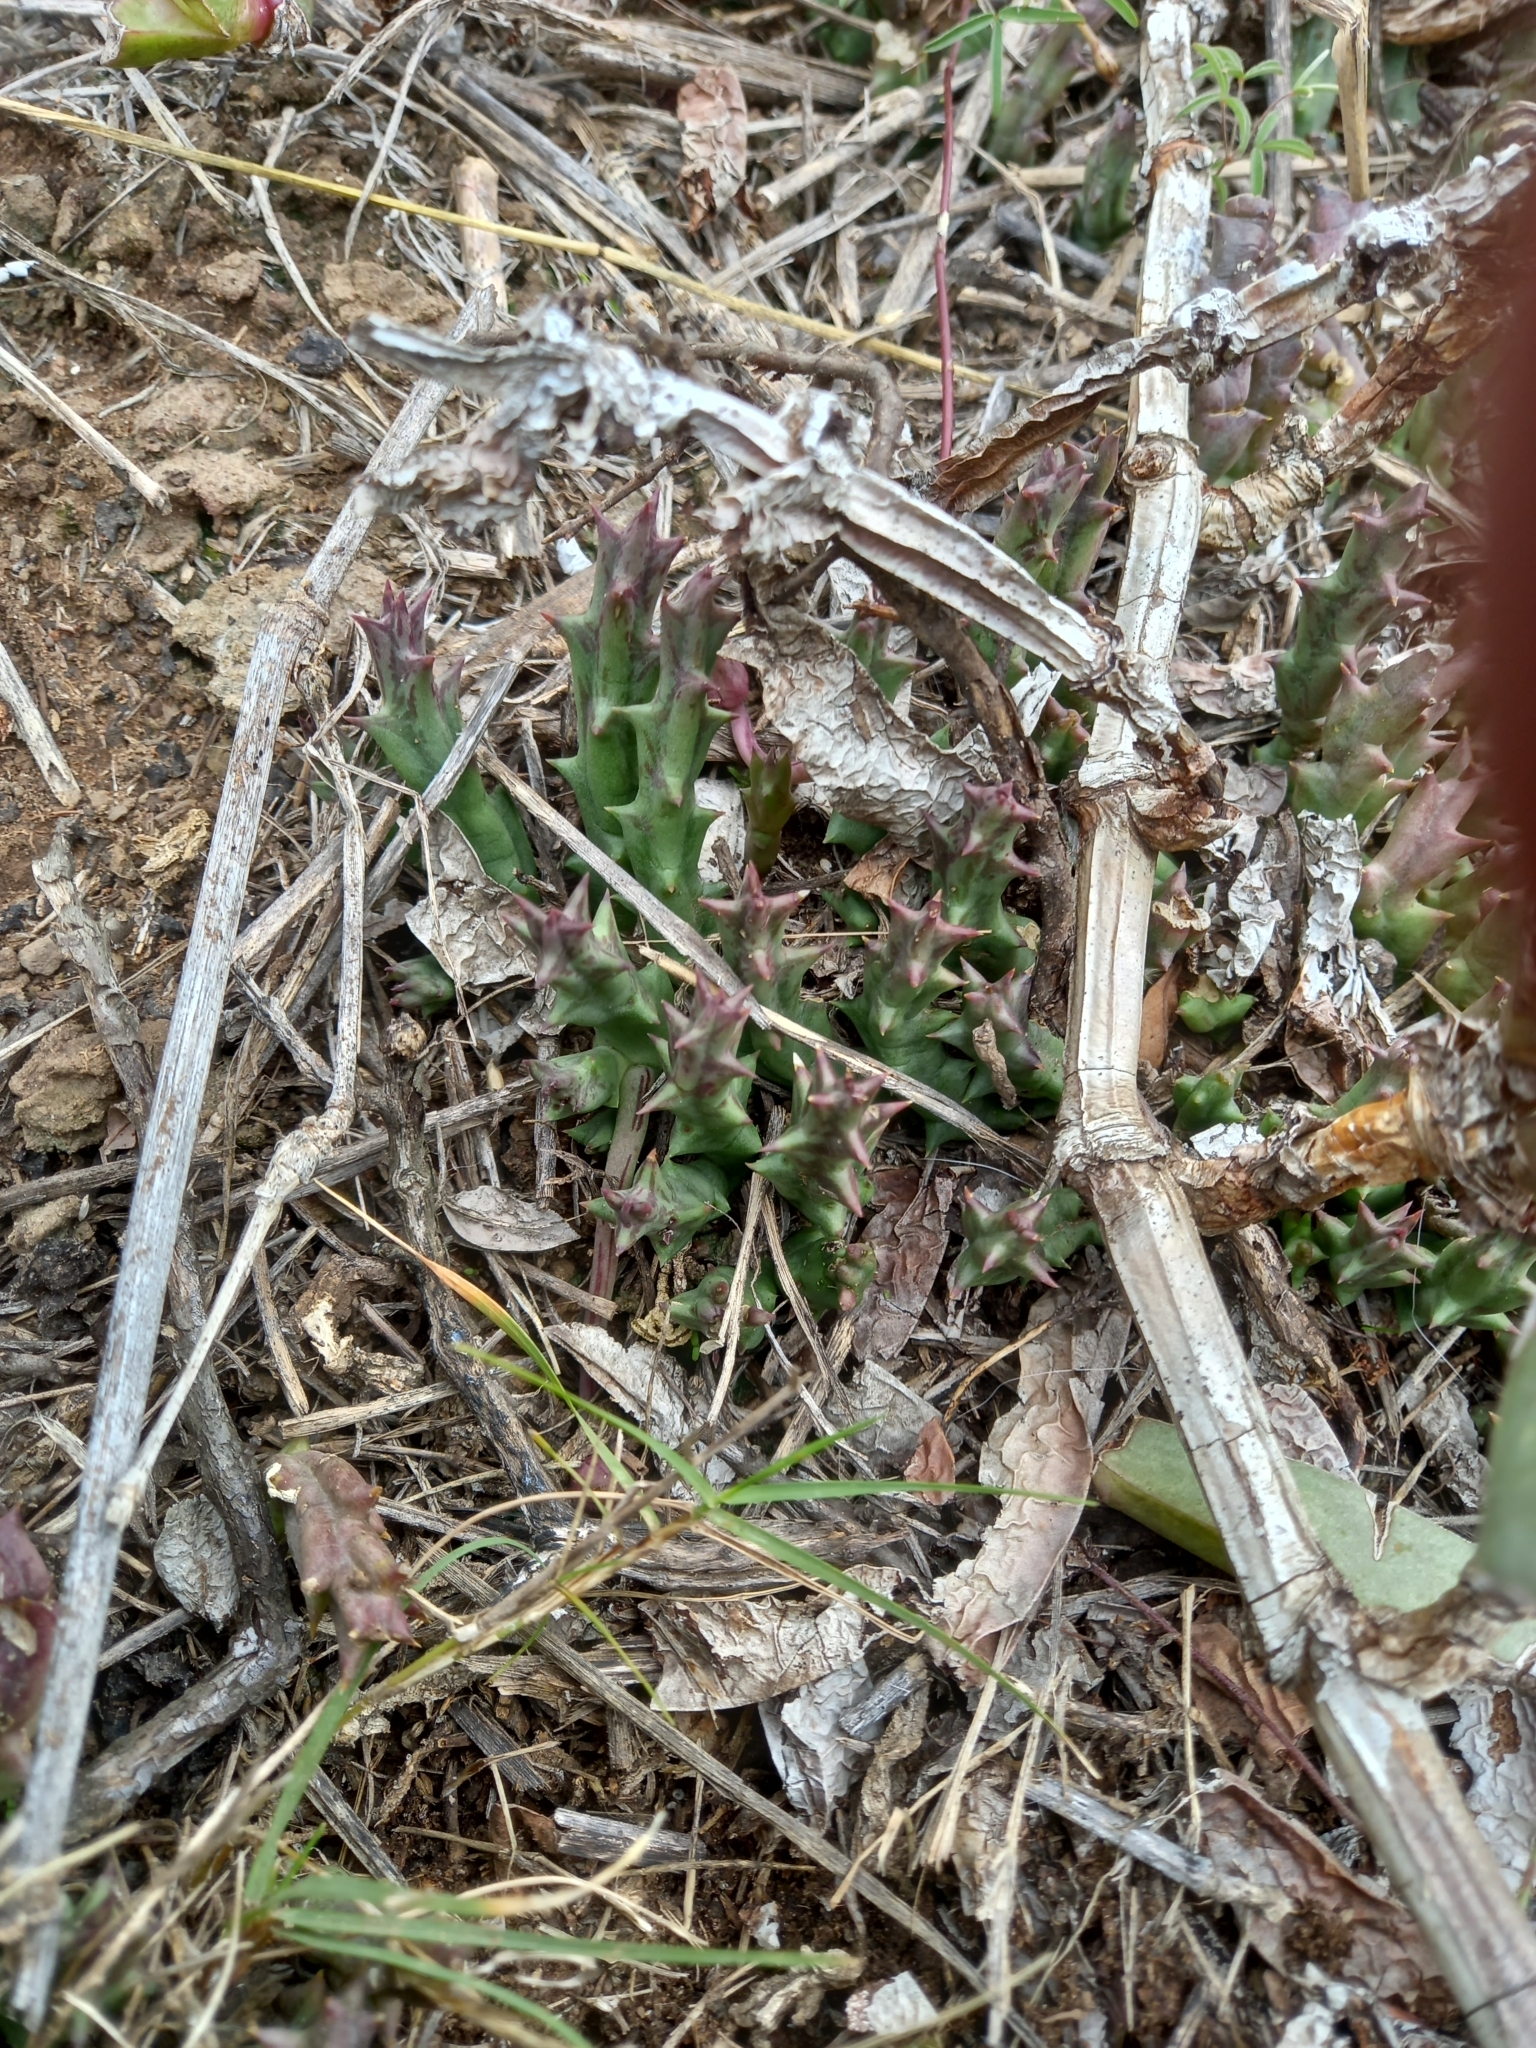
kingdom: Plantae
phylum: Tracheophyta
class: Magnoliopsida
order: Gentianales
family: Apocynaceae
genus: Ceropegia
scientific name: Ceropegia mixta
